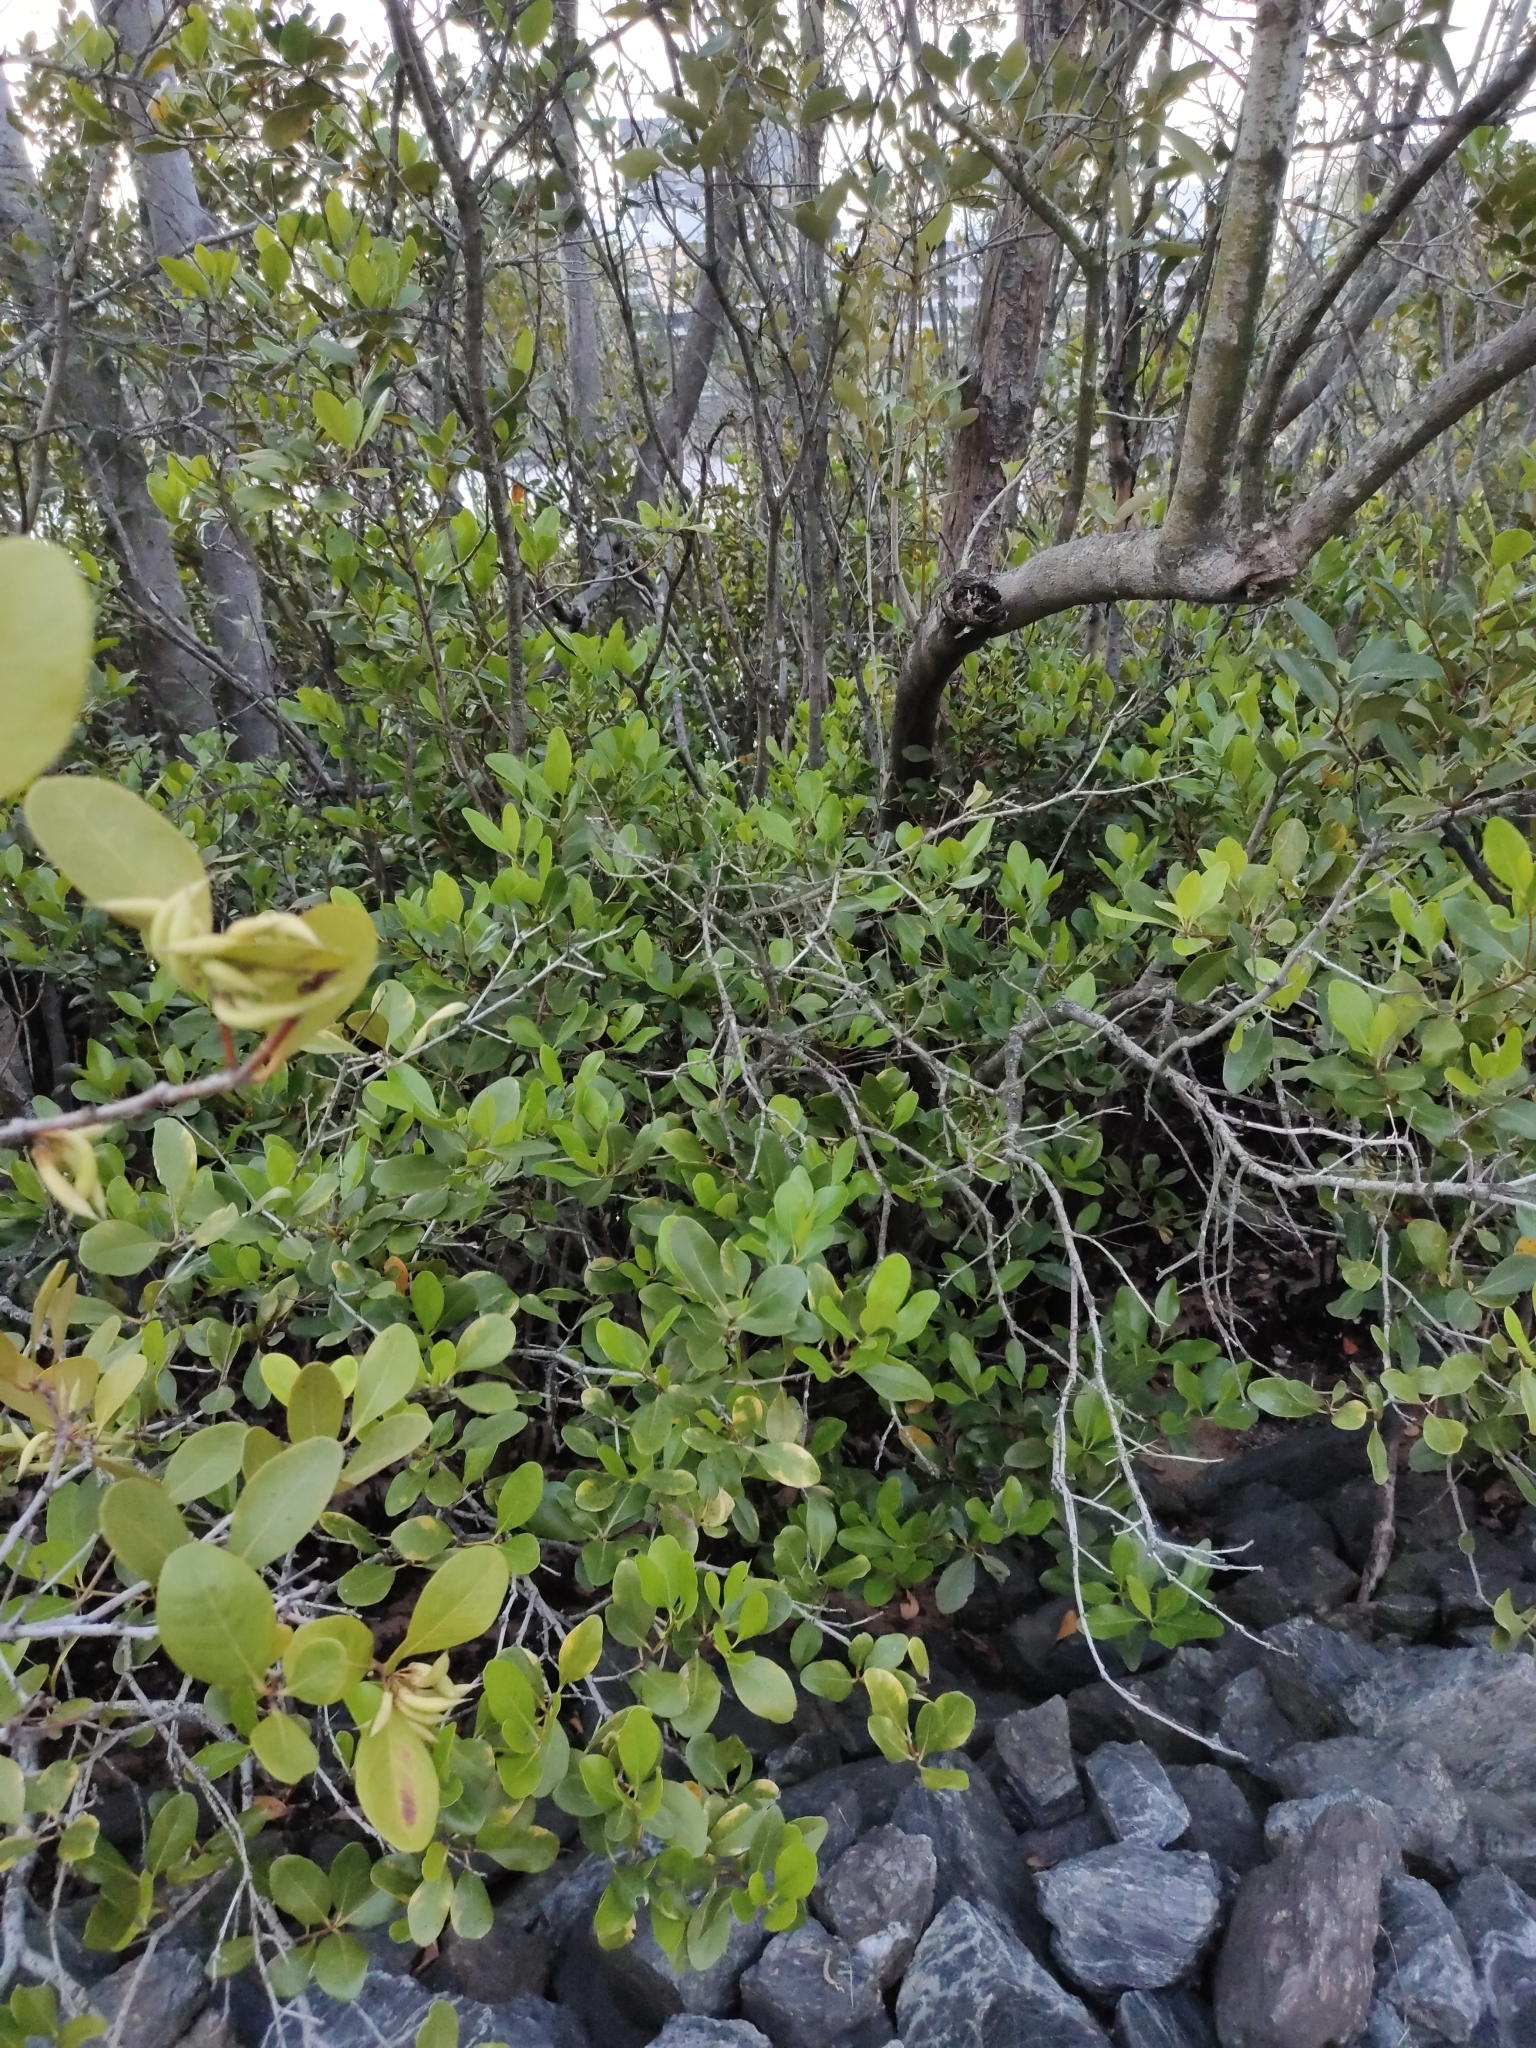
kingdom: Plantae
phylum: Tracheophyta
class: Magnoliopsida
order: Ericales
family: Primulaceae
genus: Aegiceras
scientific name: Aegiceras corniculatum
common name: River mangrove
